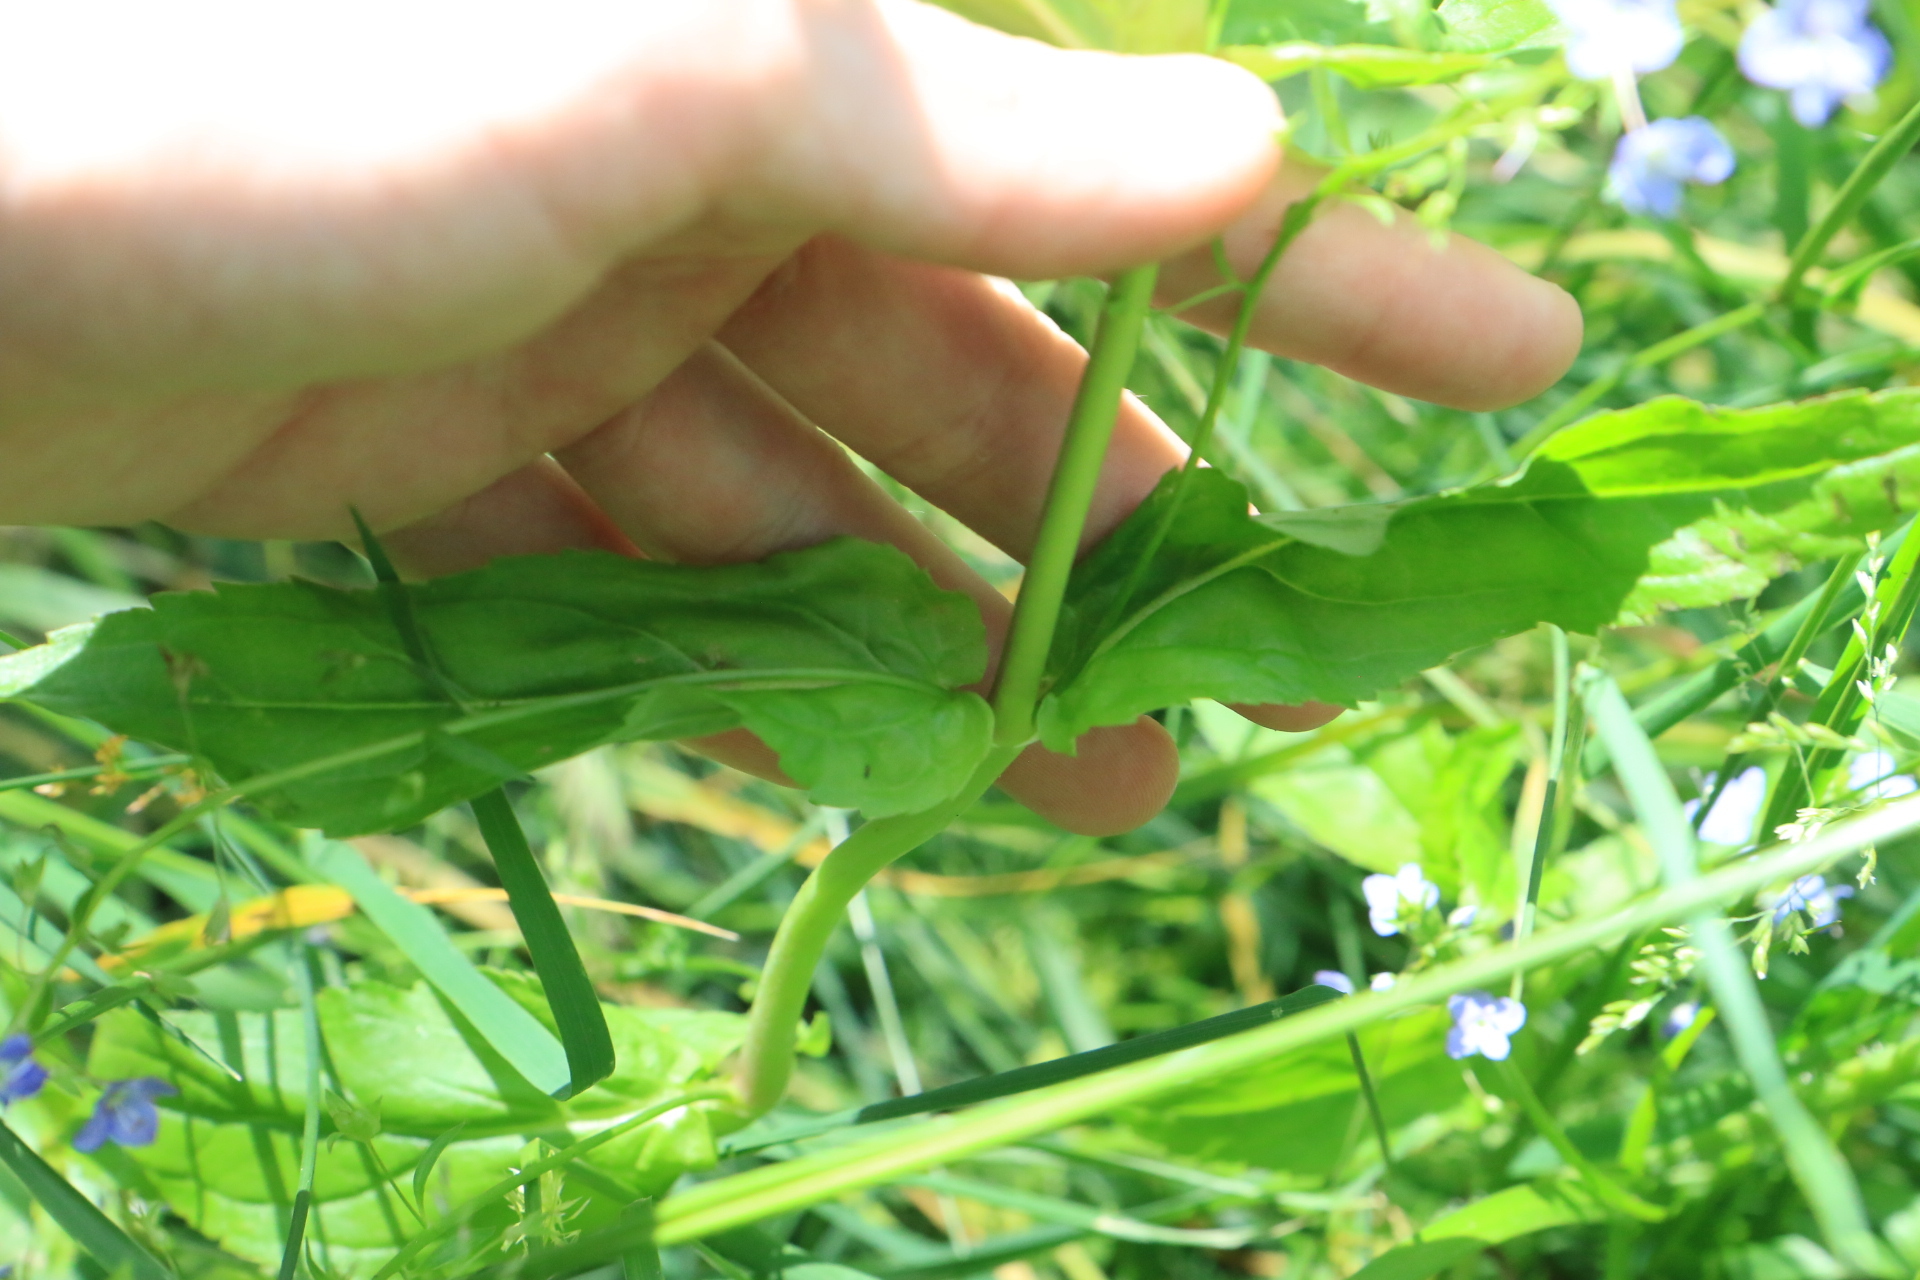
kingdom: Plantae
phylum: Tracheophyta
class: Magnoliopsida
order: Lamiales
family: Plantaginaceae
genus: Veronica
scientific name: Veronica americana
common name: American brooklime
